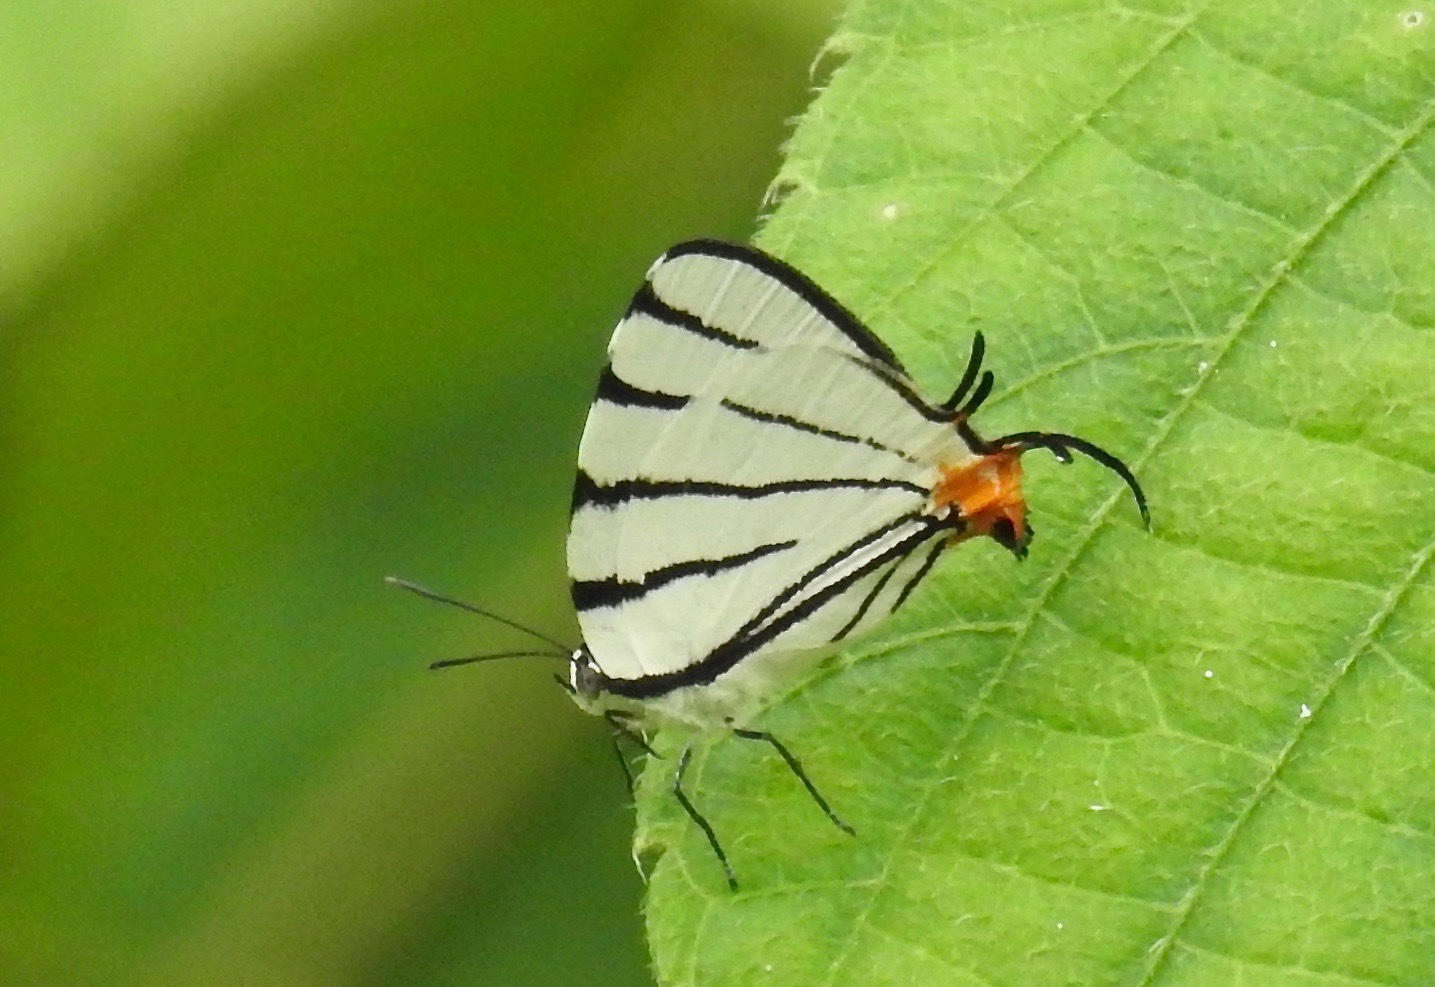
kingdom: Animalia
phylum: Arthropoda
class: Insecta
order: Lepidoptera
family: Lycaenidae
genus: Arawacus
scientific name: Arawacus leucogyna
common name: Black-tipped stripe-streak
